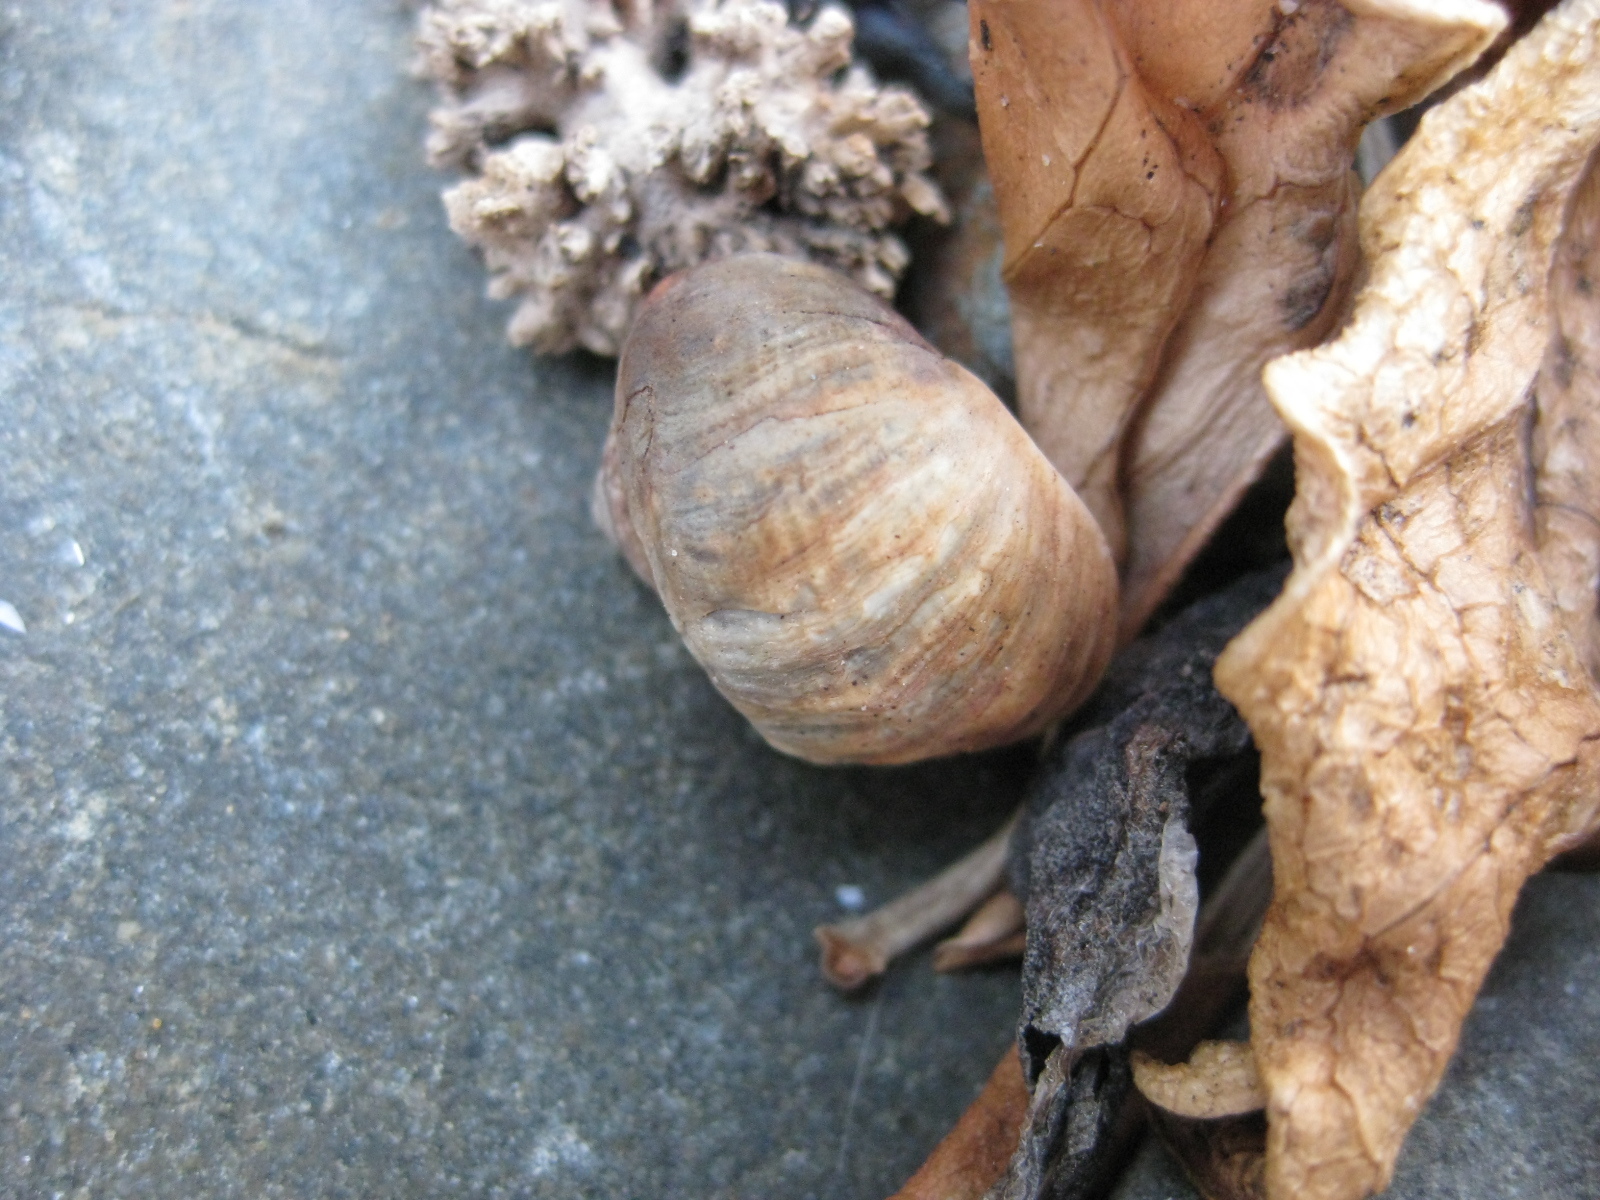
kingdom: Animalia
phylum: Mollusca
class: Gastropoda
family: Amphibolidae
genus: Amphibola
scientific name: Amphibola crenata
